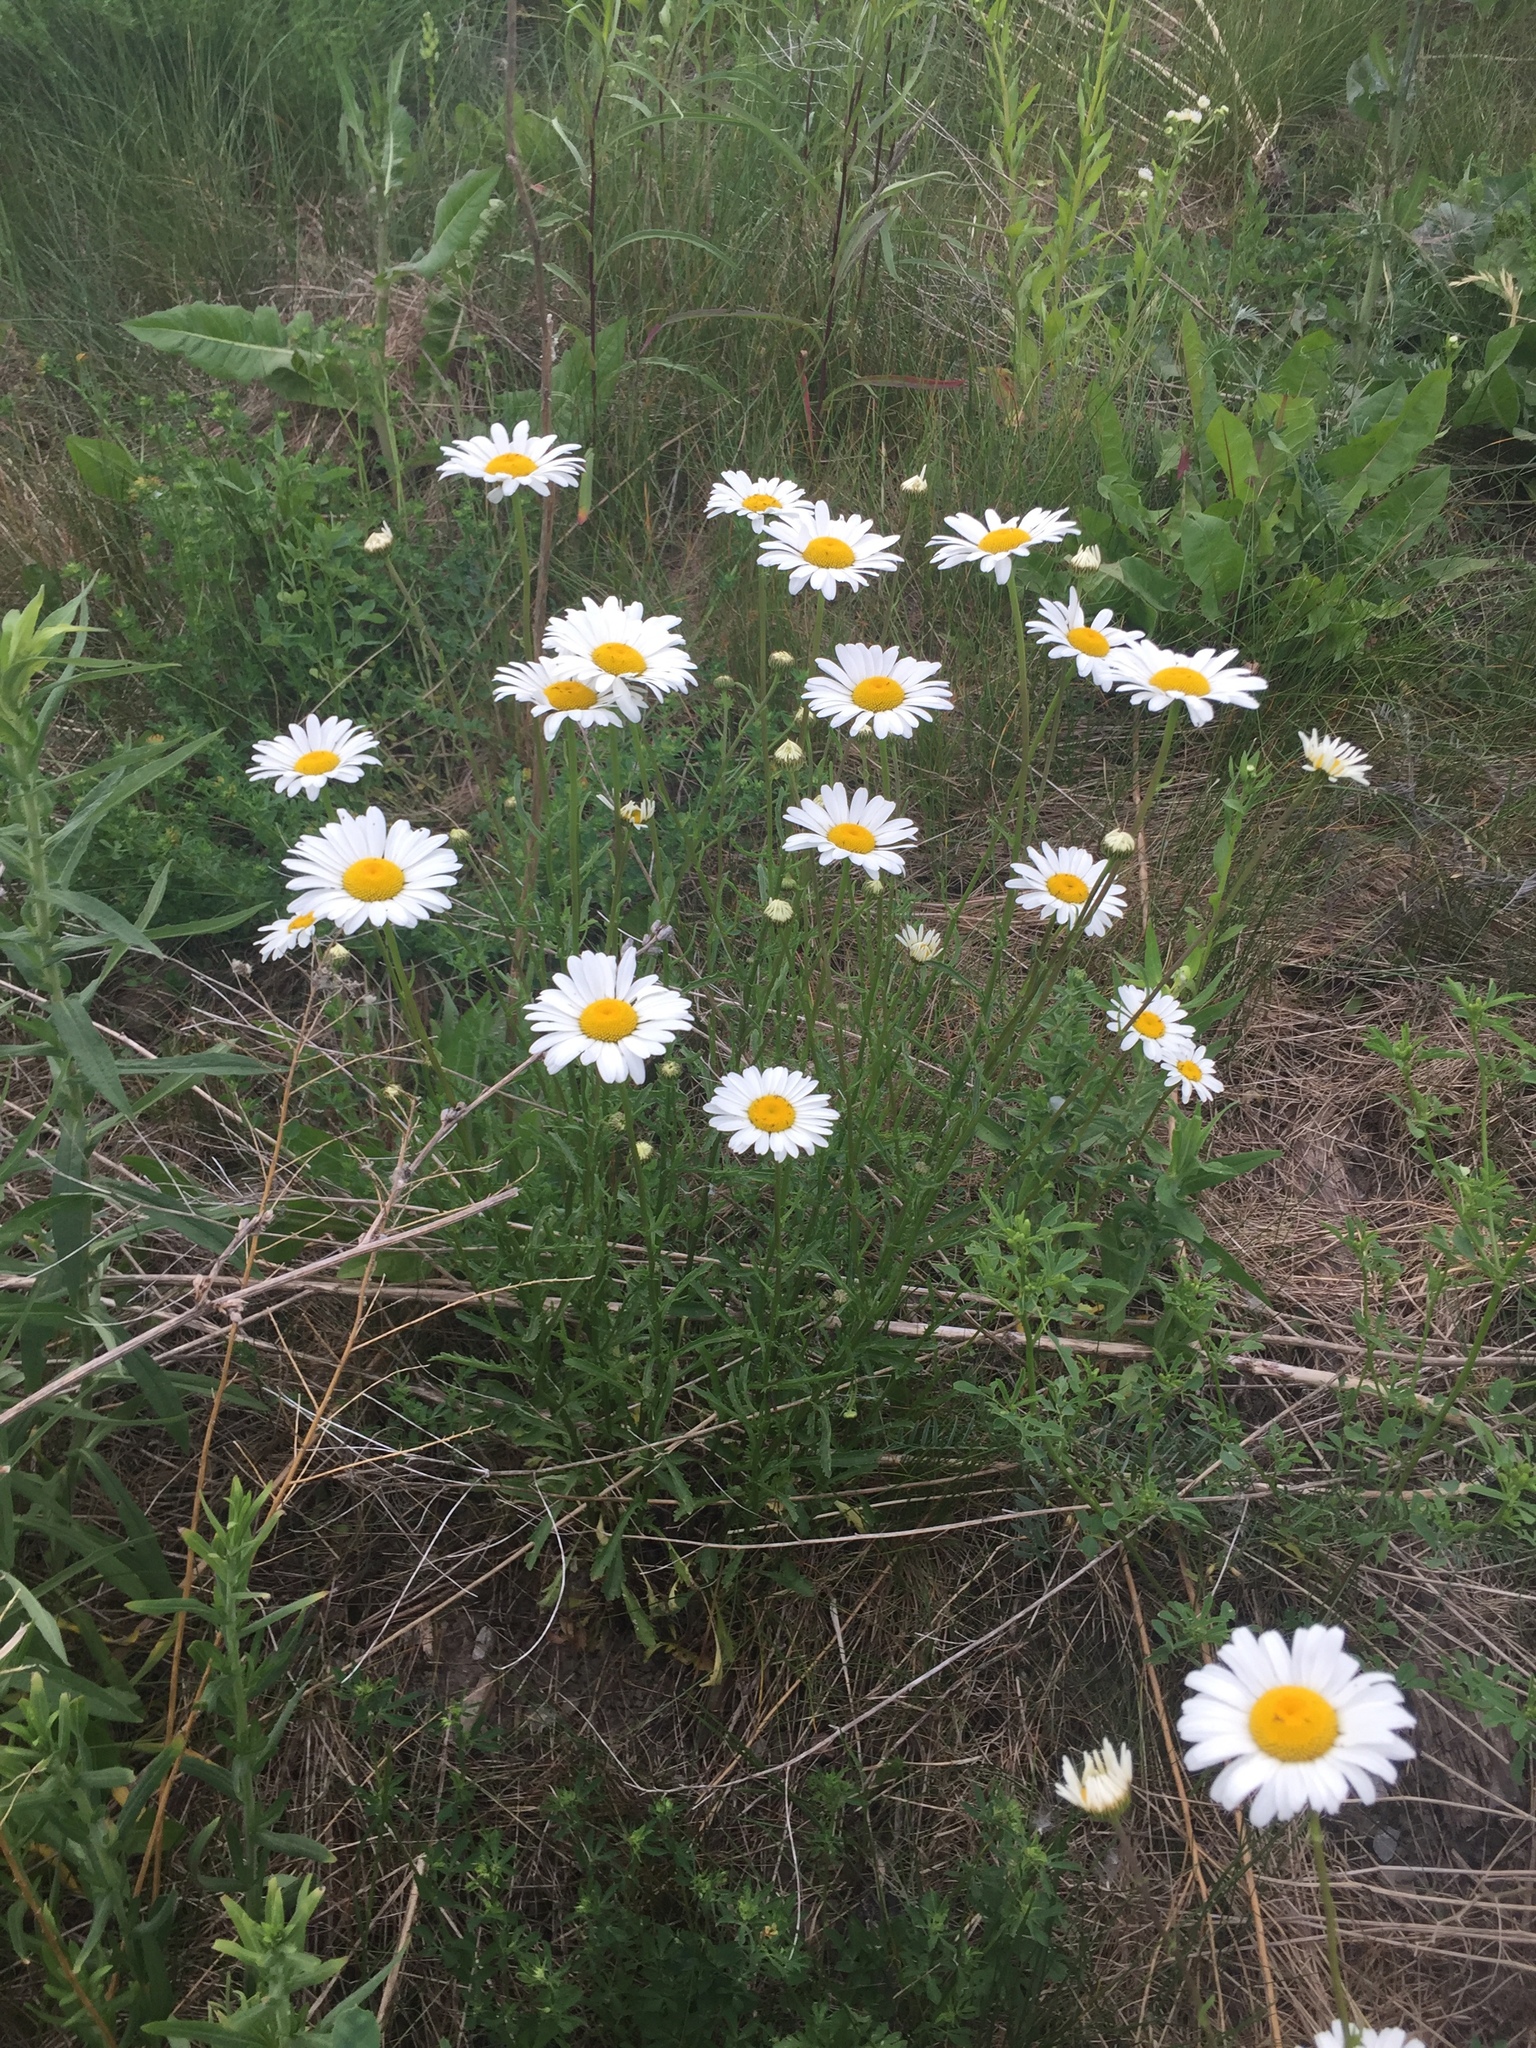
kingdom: Plantae
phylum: Tracheophyta
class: Magnoliopsida
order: Asterales
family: Asteraceae
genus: Leucanthemum
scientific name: Leucanthemum vulgare
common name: Oxeye daisy
